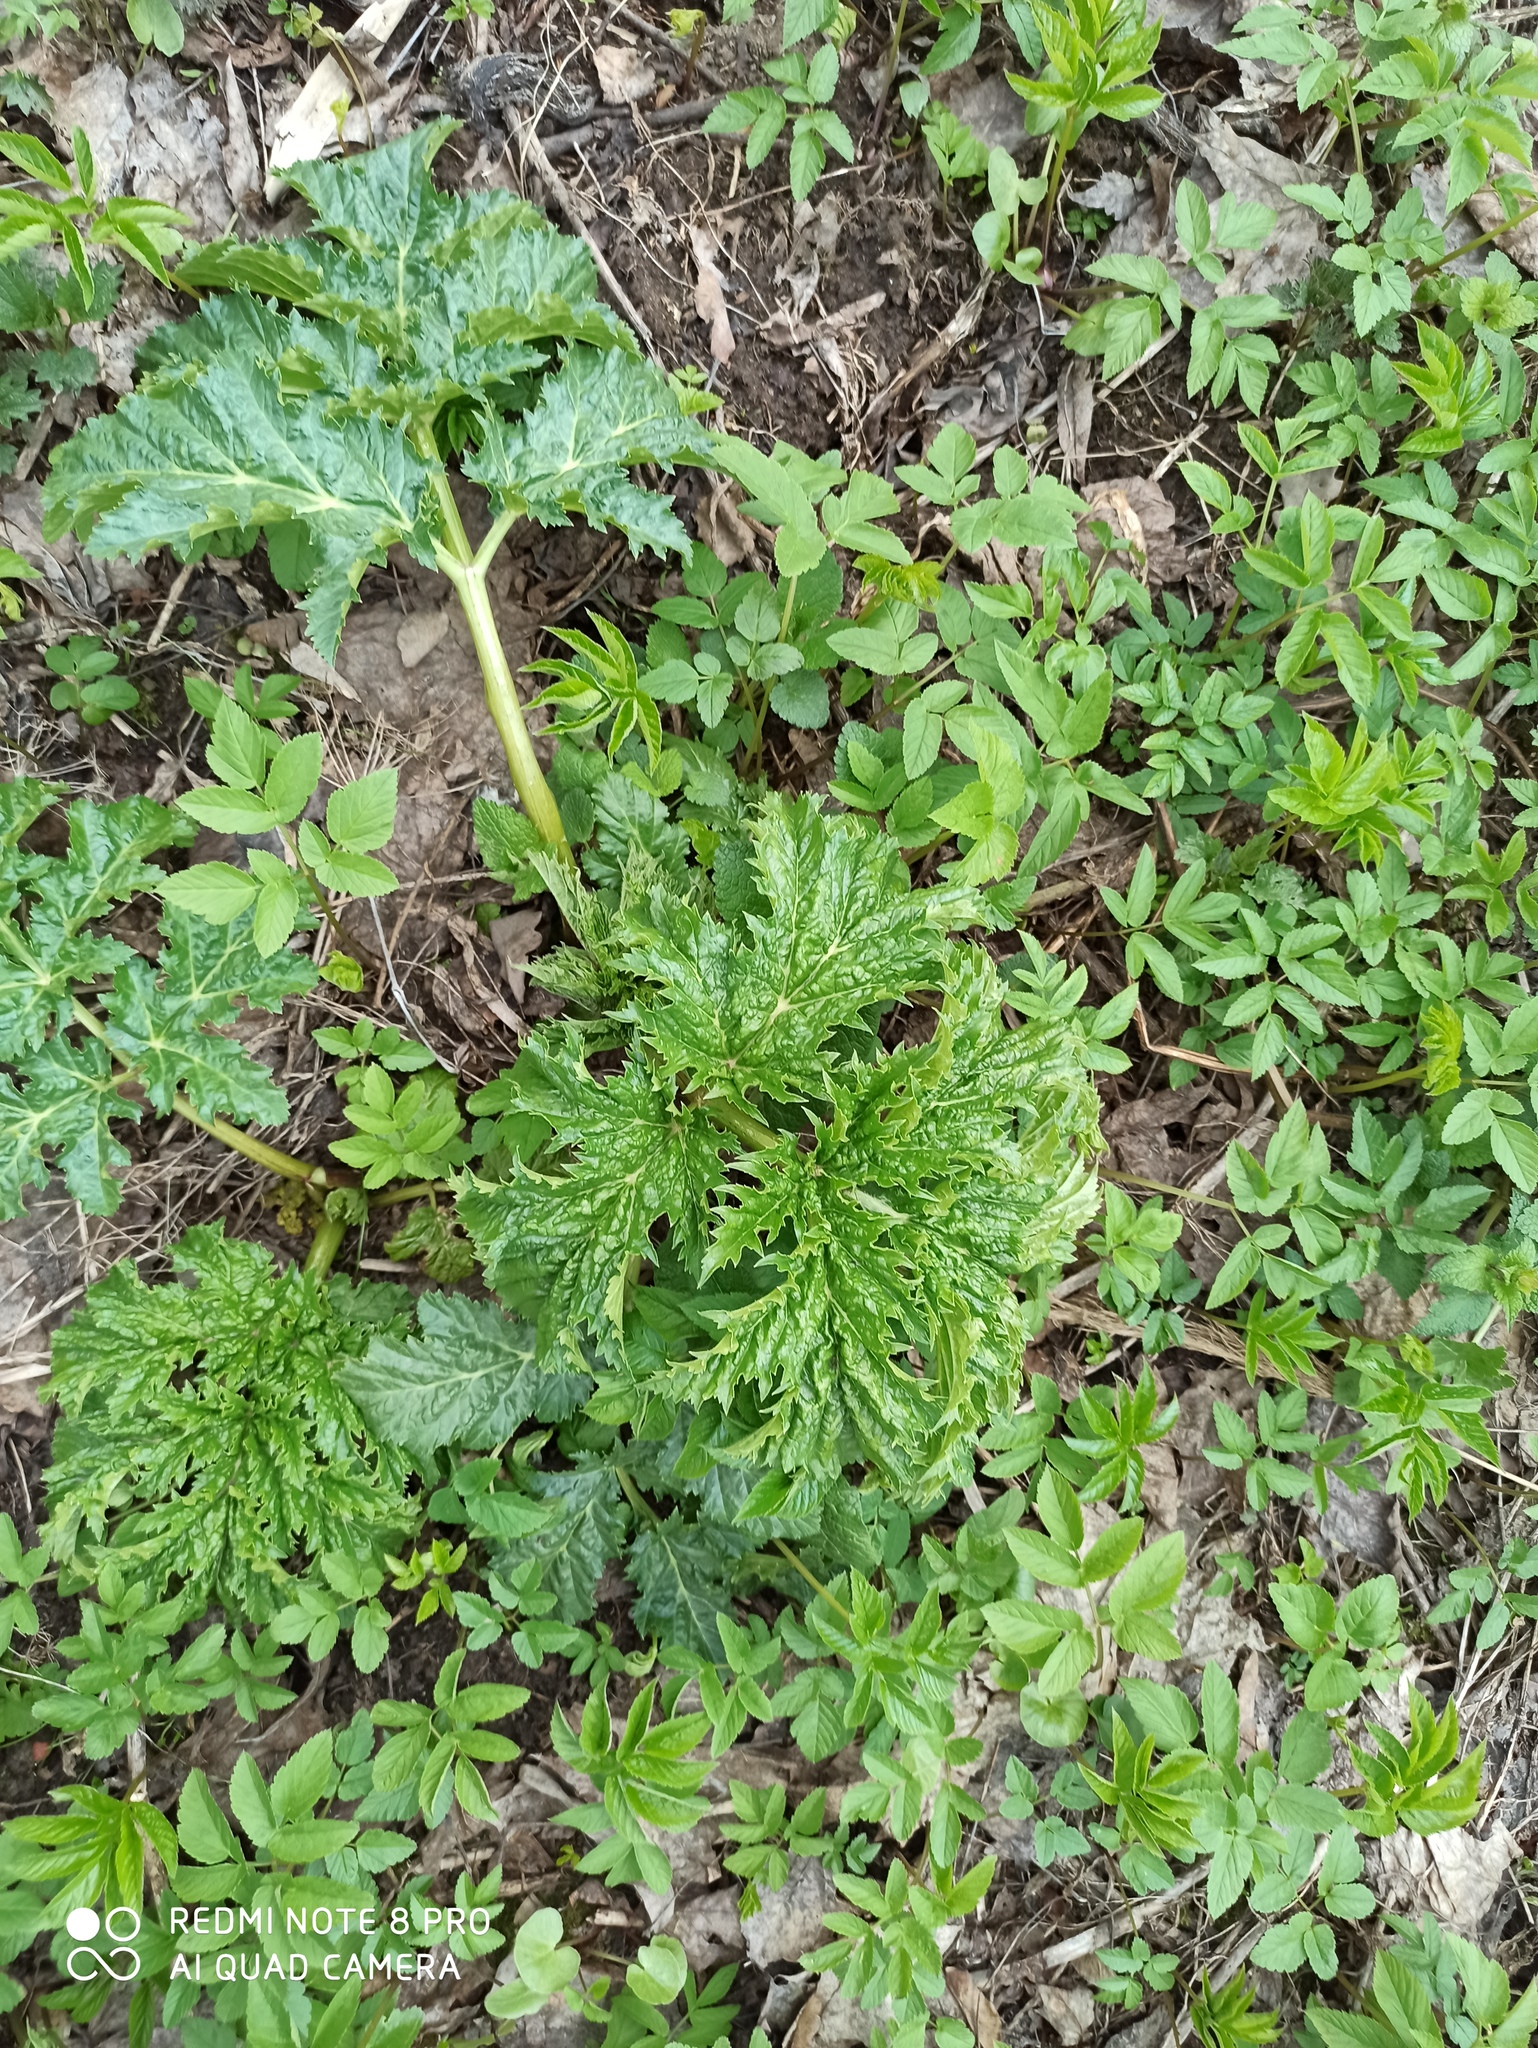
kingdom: Plantae
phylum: Tracheophyta
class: Magnoliopsida
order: Apiales
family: Apiaceae
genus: Heracleum
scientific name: Heracleum sosnowskyi
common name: Sosnowsky's hogweed
